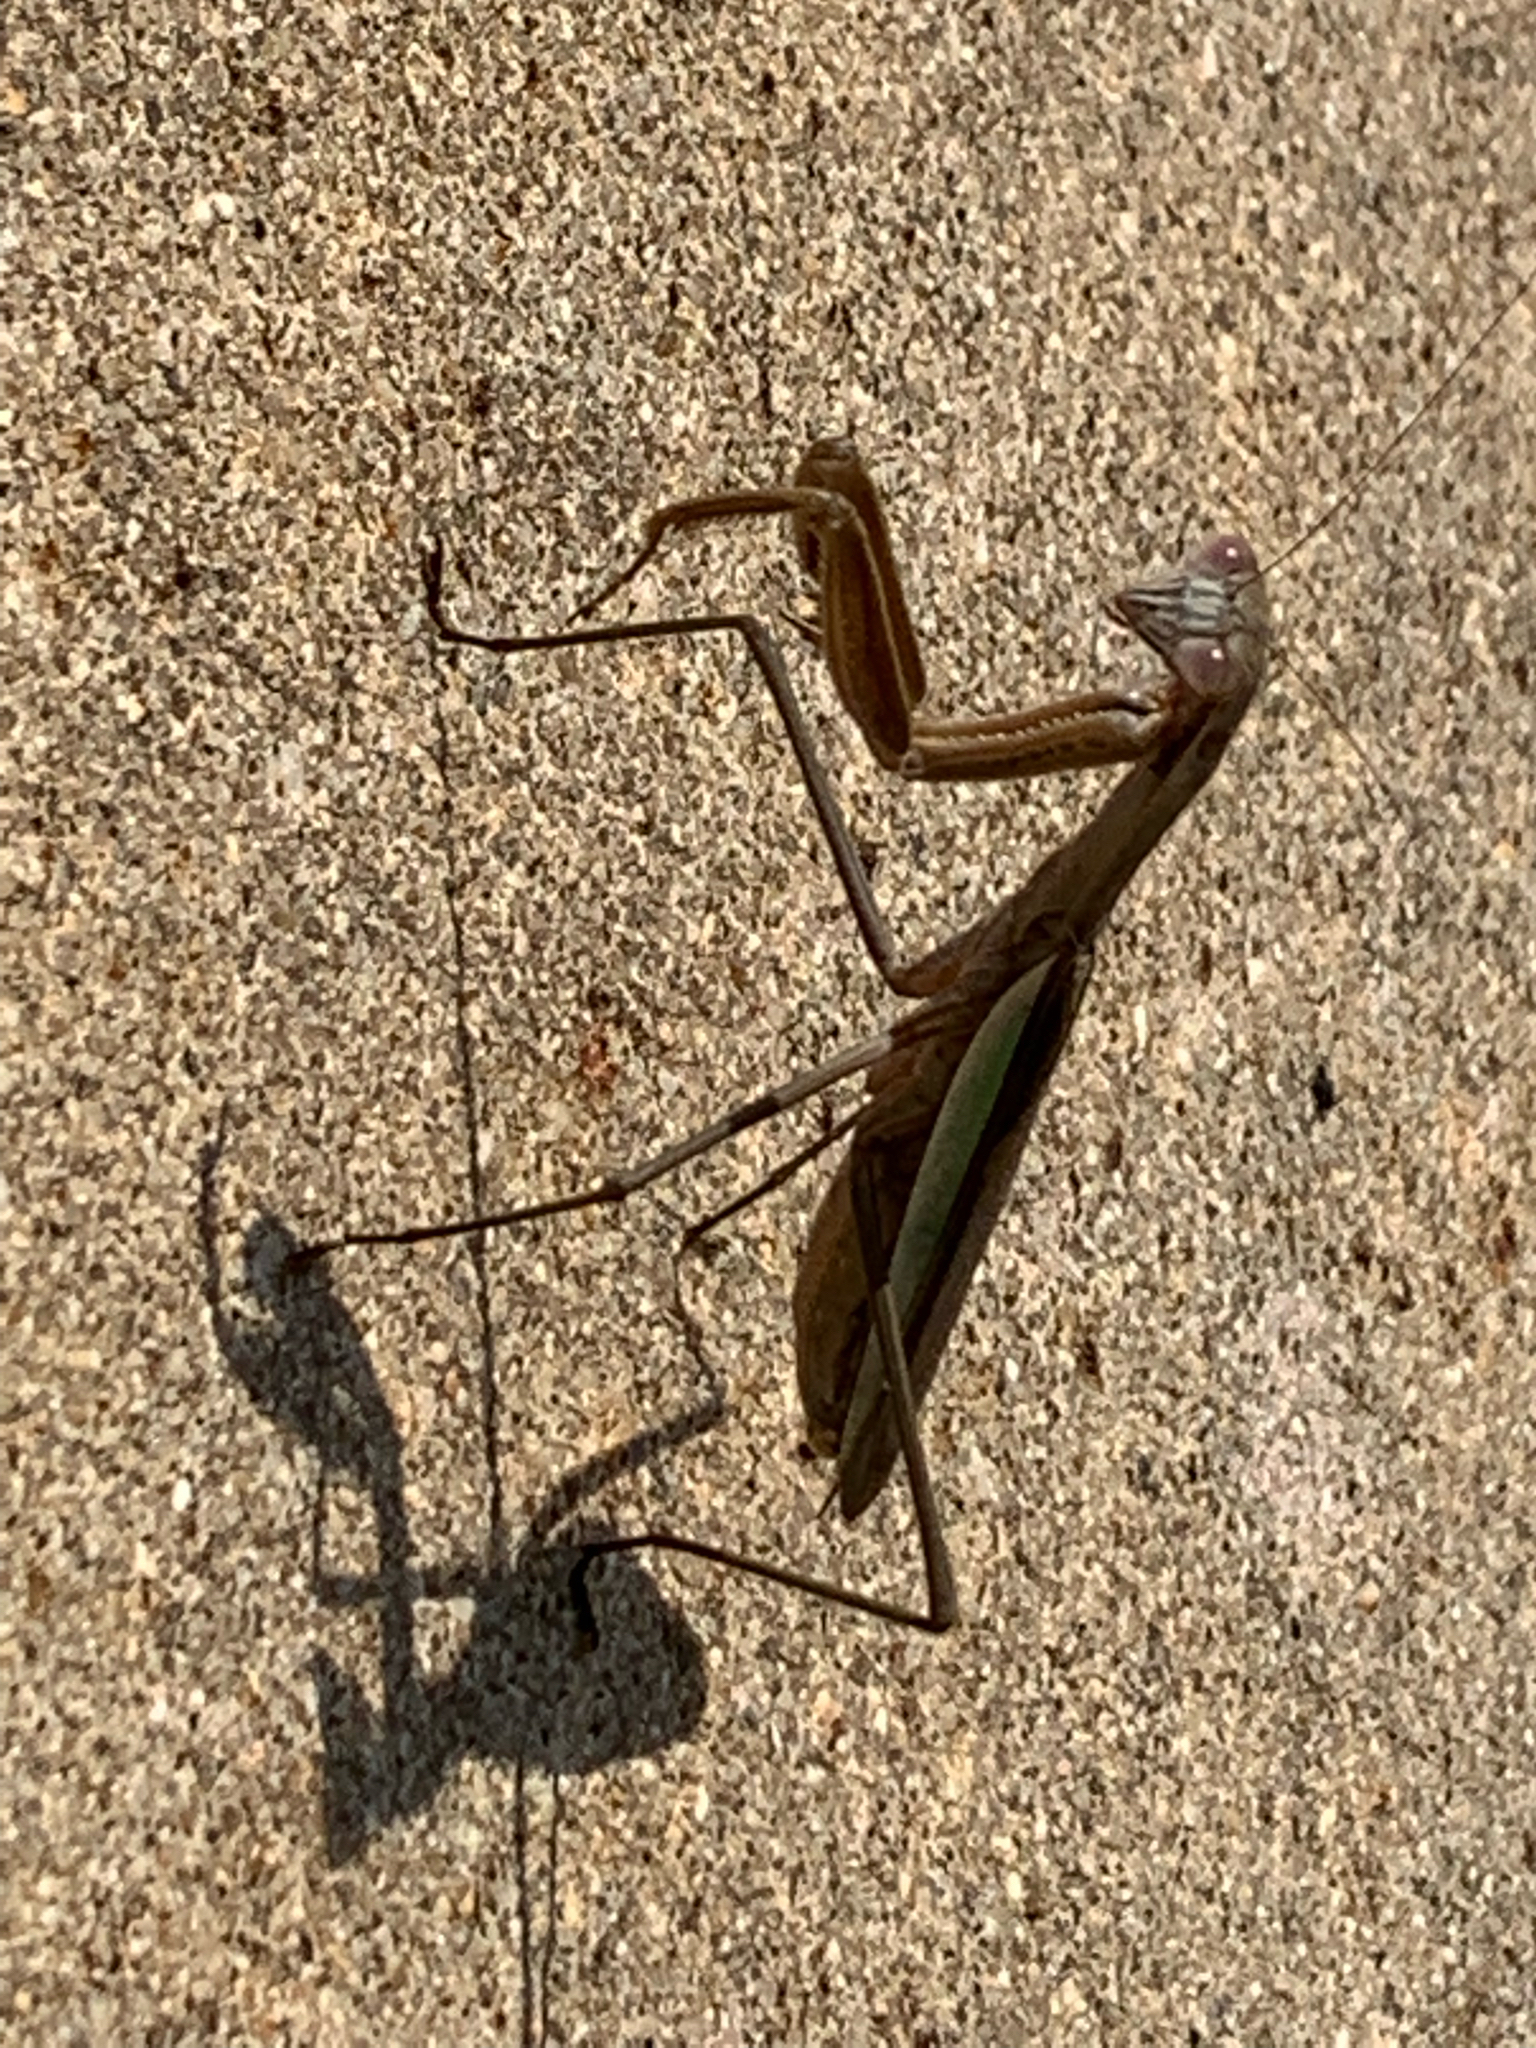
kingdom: Animalia
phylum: Arthropoda
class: Insecta
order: Mantodea
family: Mantidae
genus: Tenodera
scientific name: Tenodera sinensis
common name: Chinese mantis
